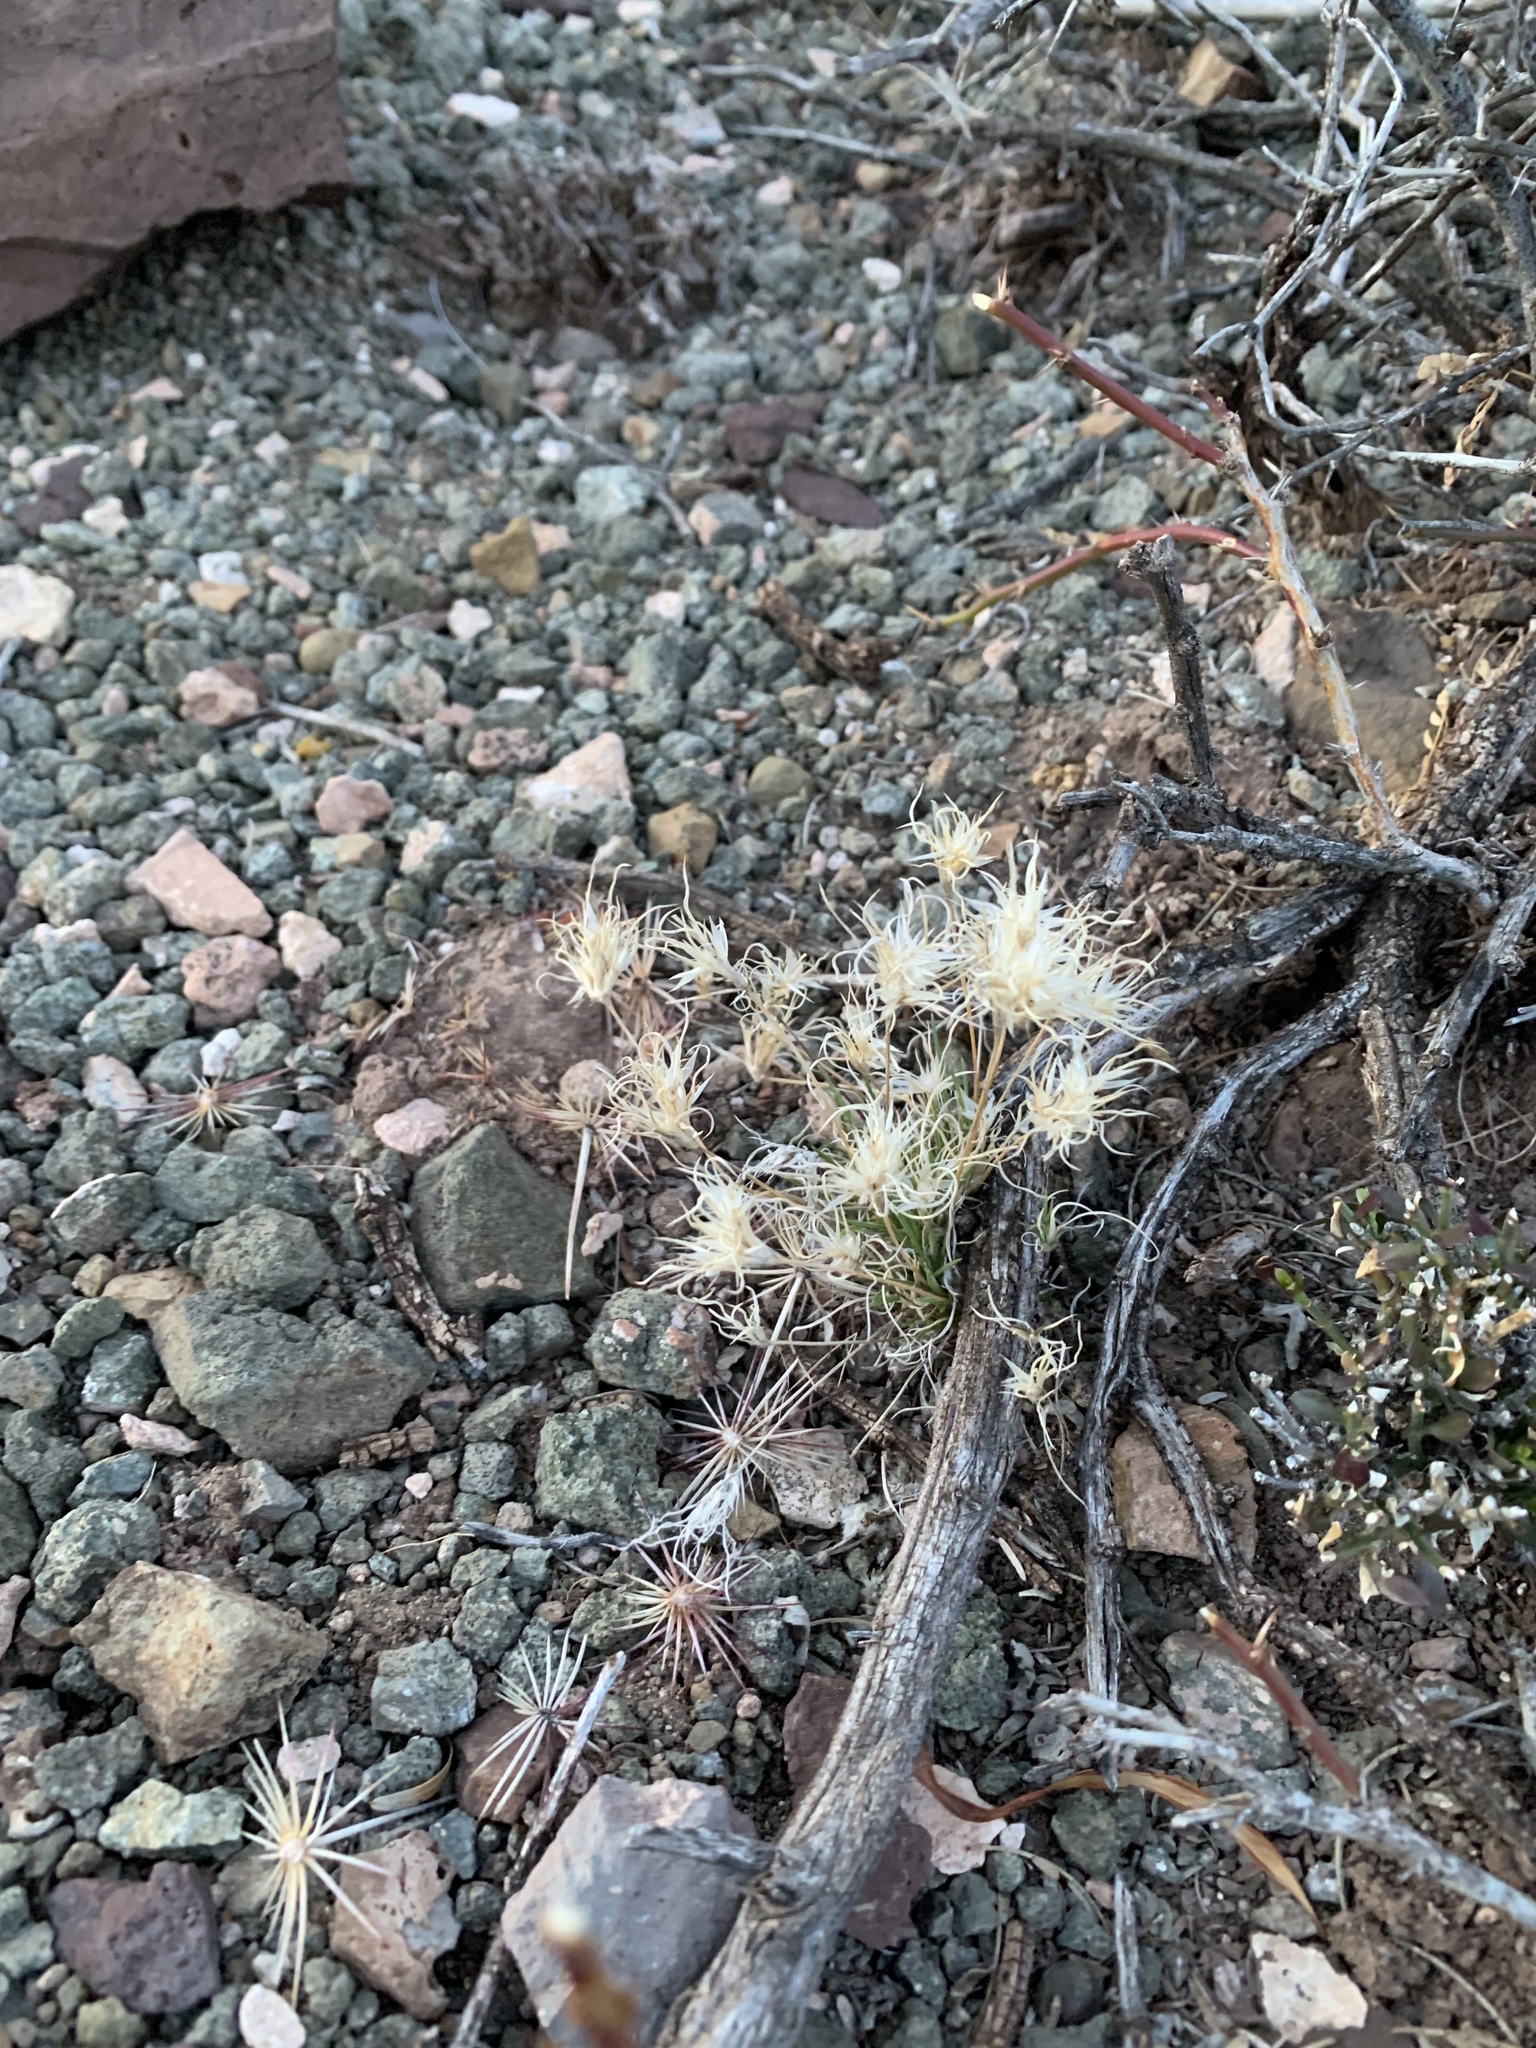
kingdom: Plantae
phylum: Tracheophyta
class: Liliopsida
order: Poales
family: Poaceae
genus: Dasyochloa
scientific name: Dasyochloa pulchella
